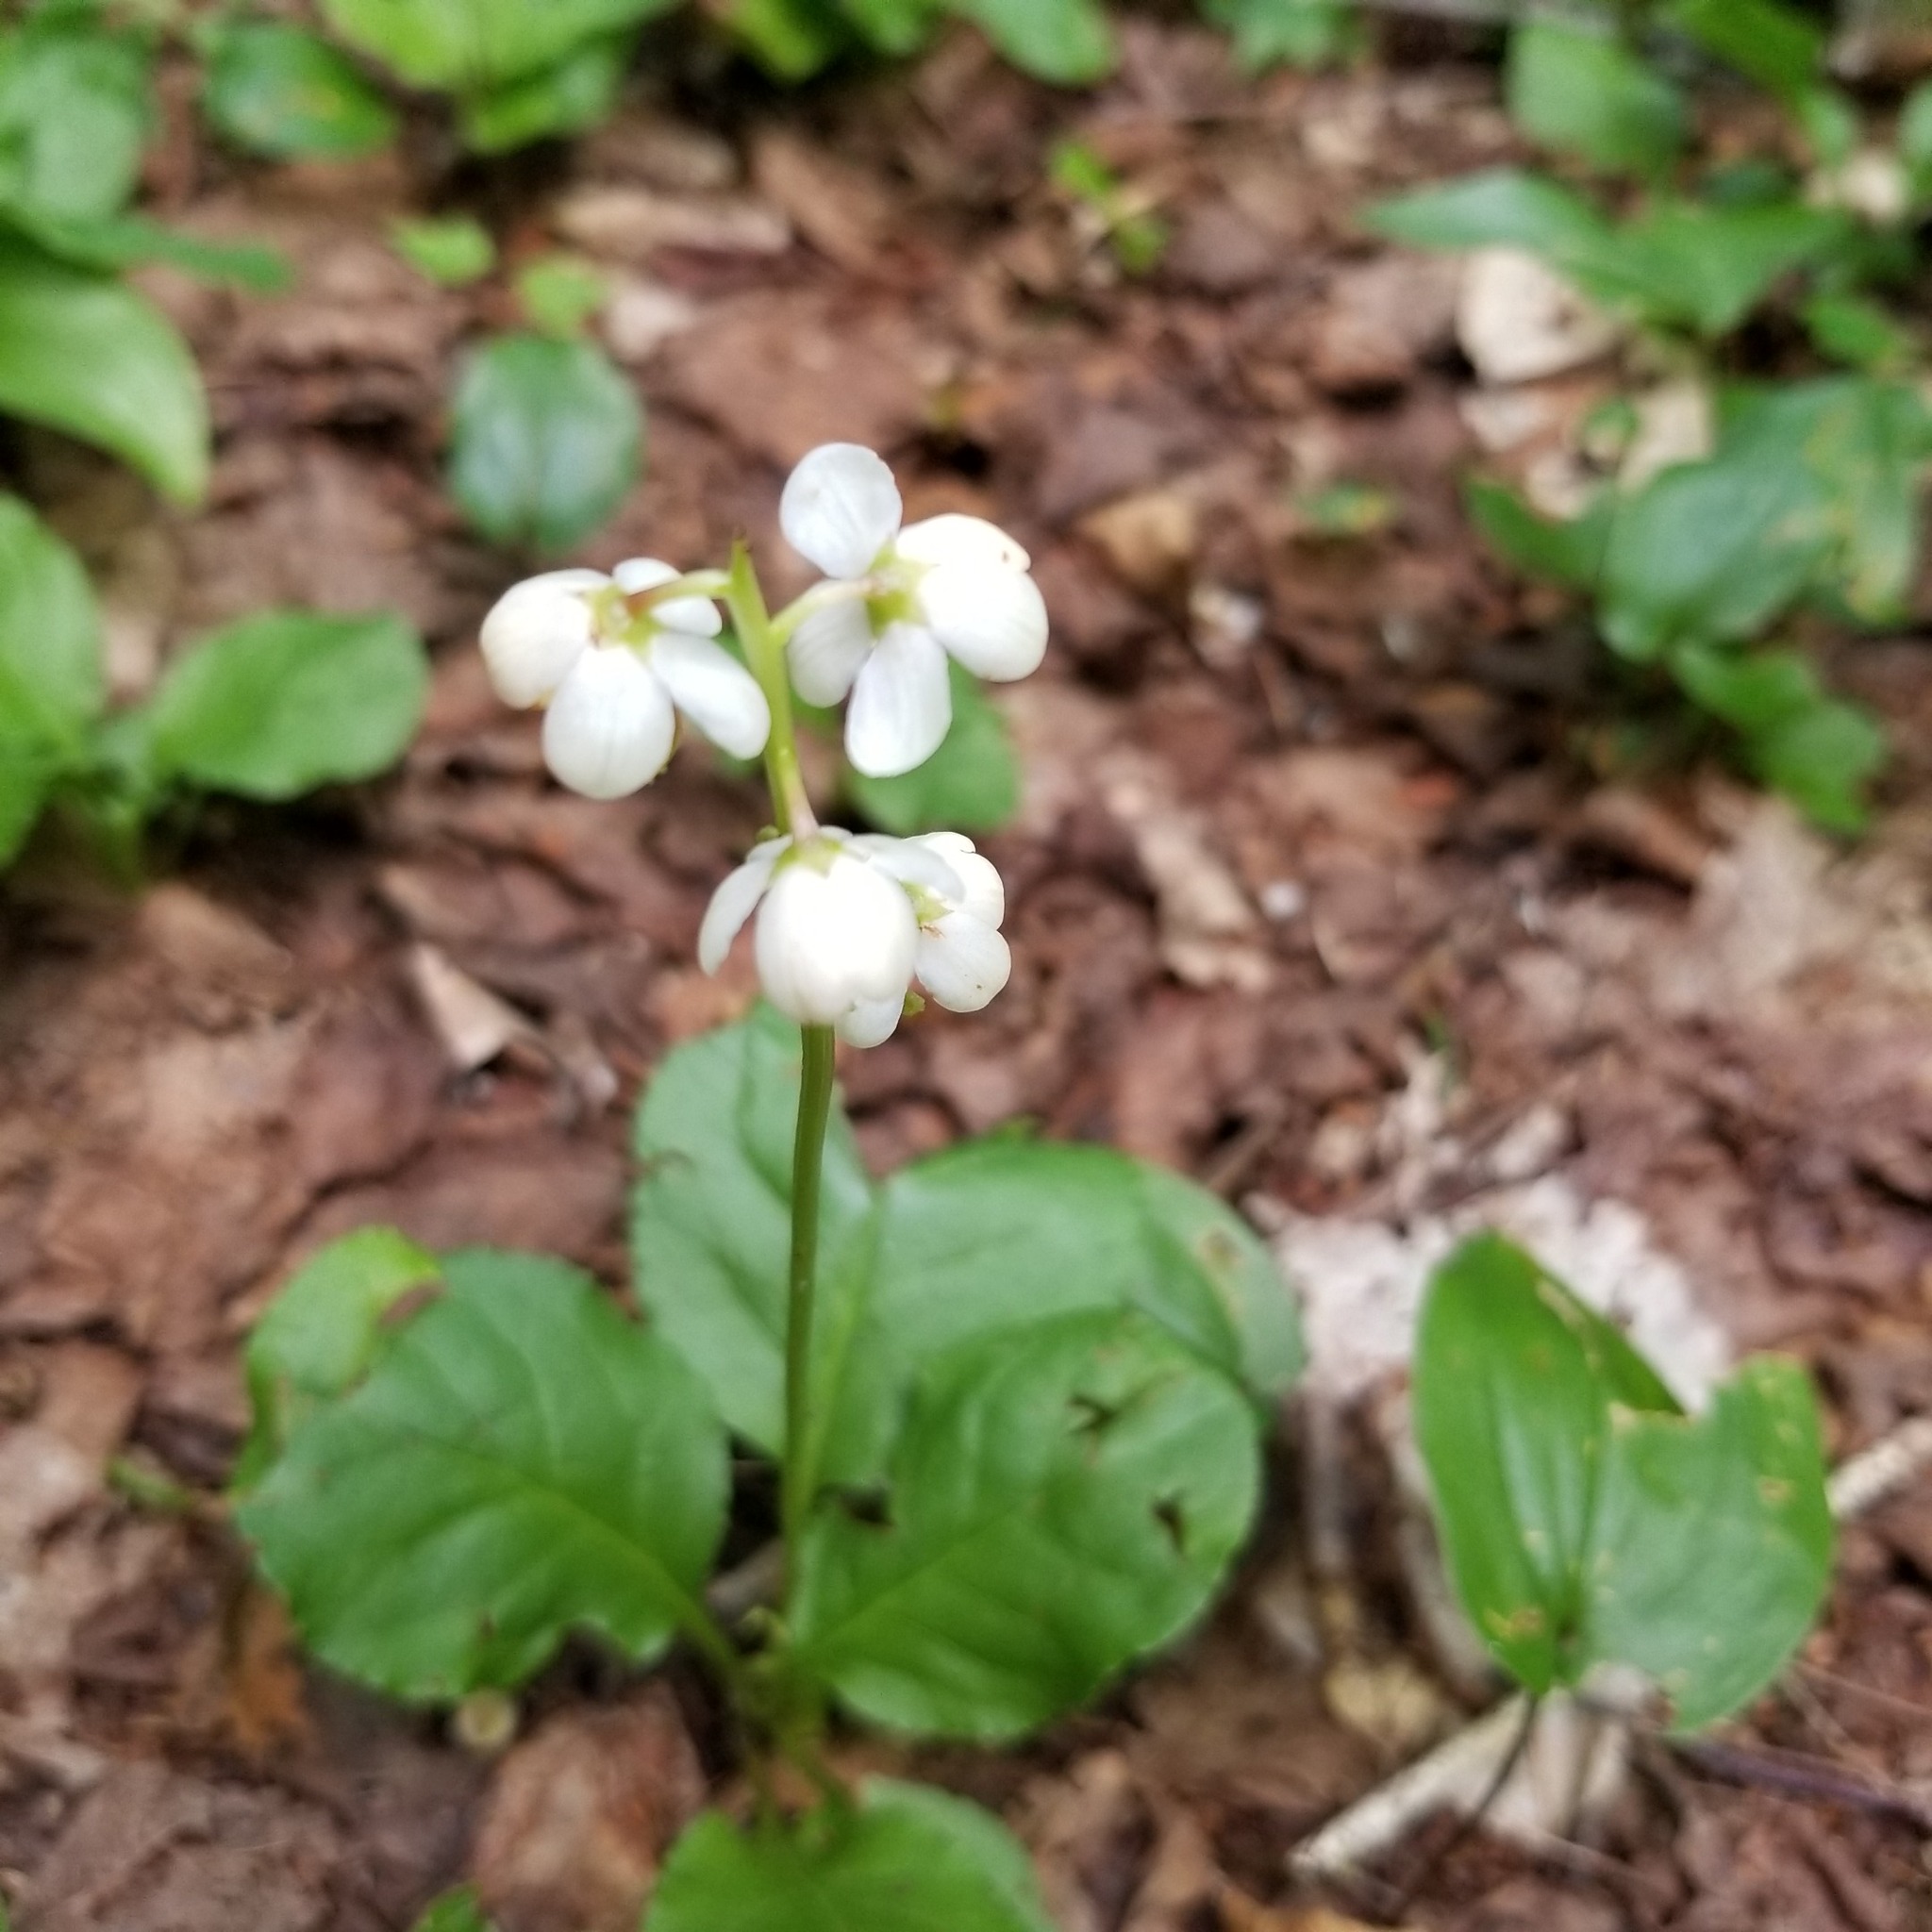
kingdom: Plantae
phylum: Tracheophyta
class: Magnoliopsida
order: Ericales
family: Ericaceae
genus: Pyrola
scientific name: Pyrola elliptica
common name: Shinleaf
